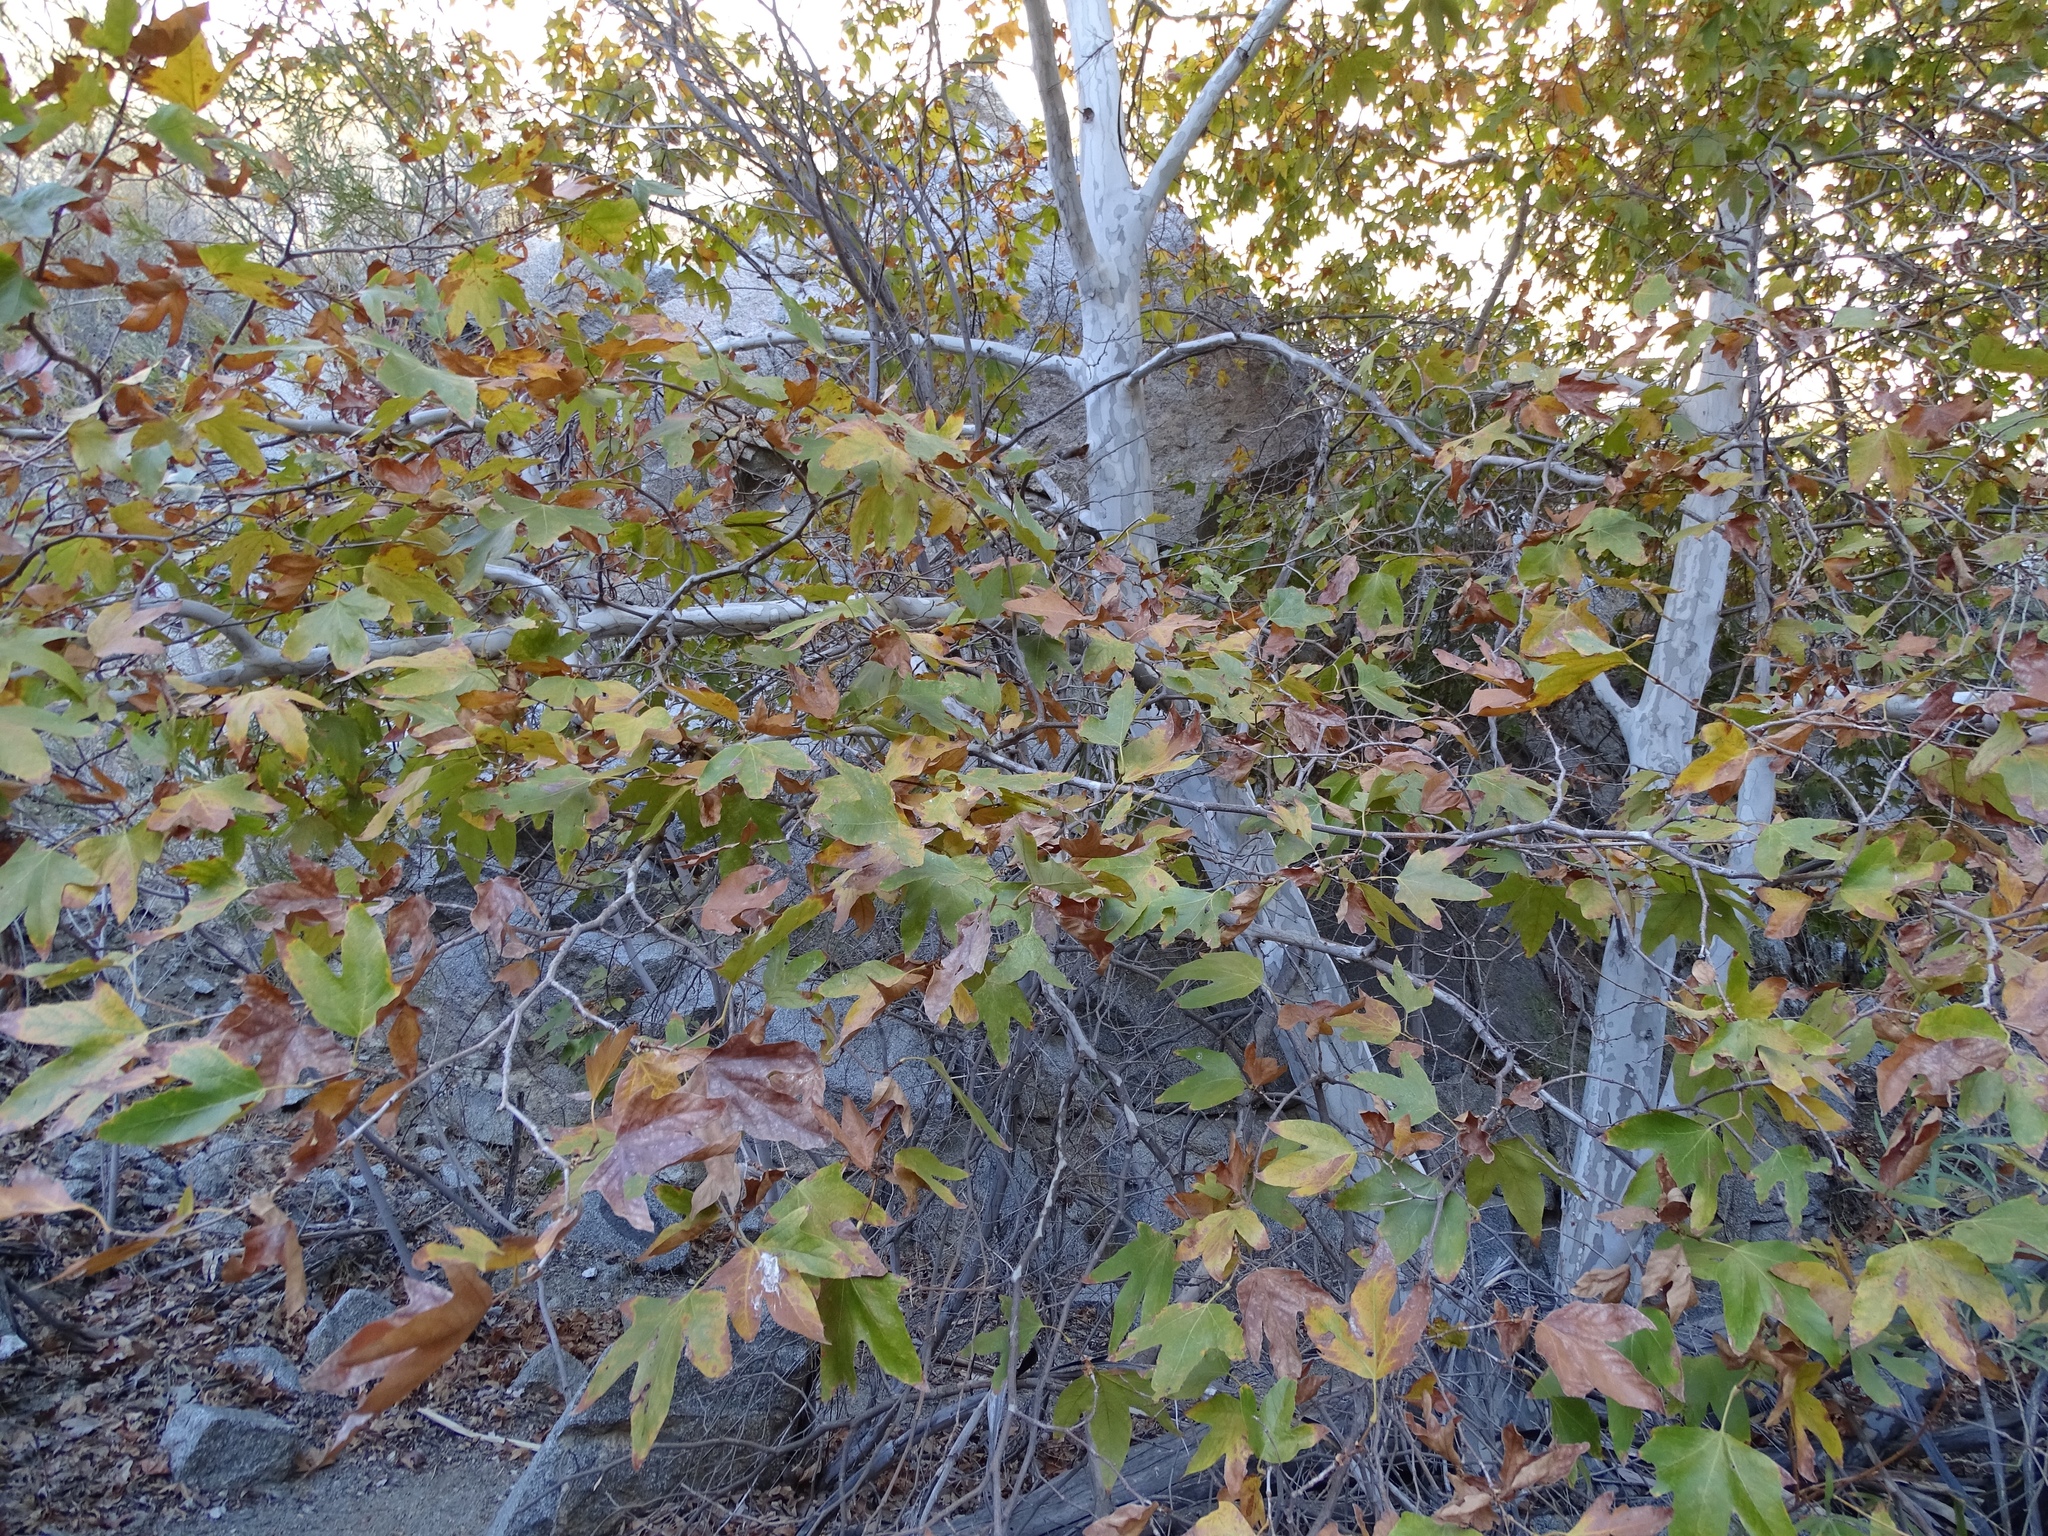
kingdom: Plantae
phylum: Tracheophyta
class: Magnoliopsida
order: Proteales
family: Platanaceae
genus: Platanus
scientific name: Platanus racemosa
